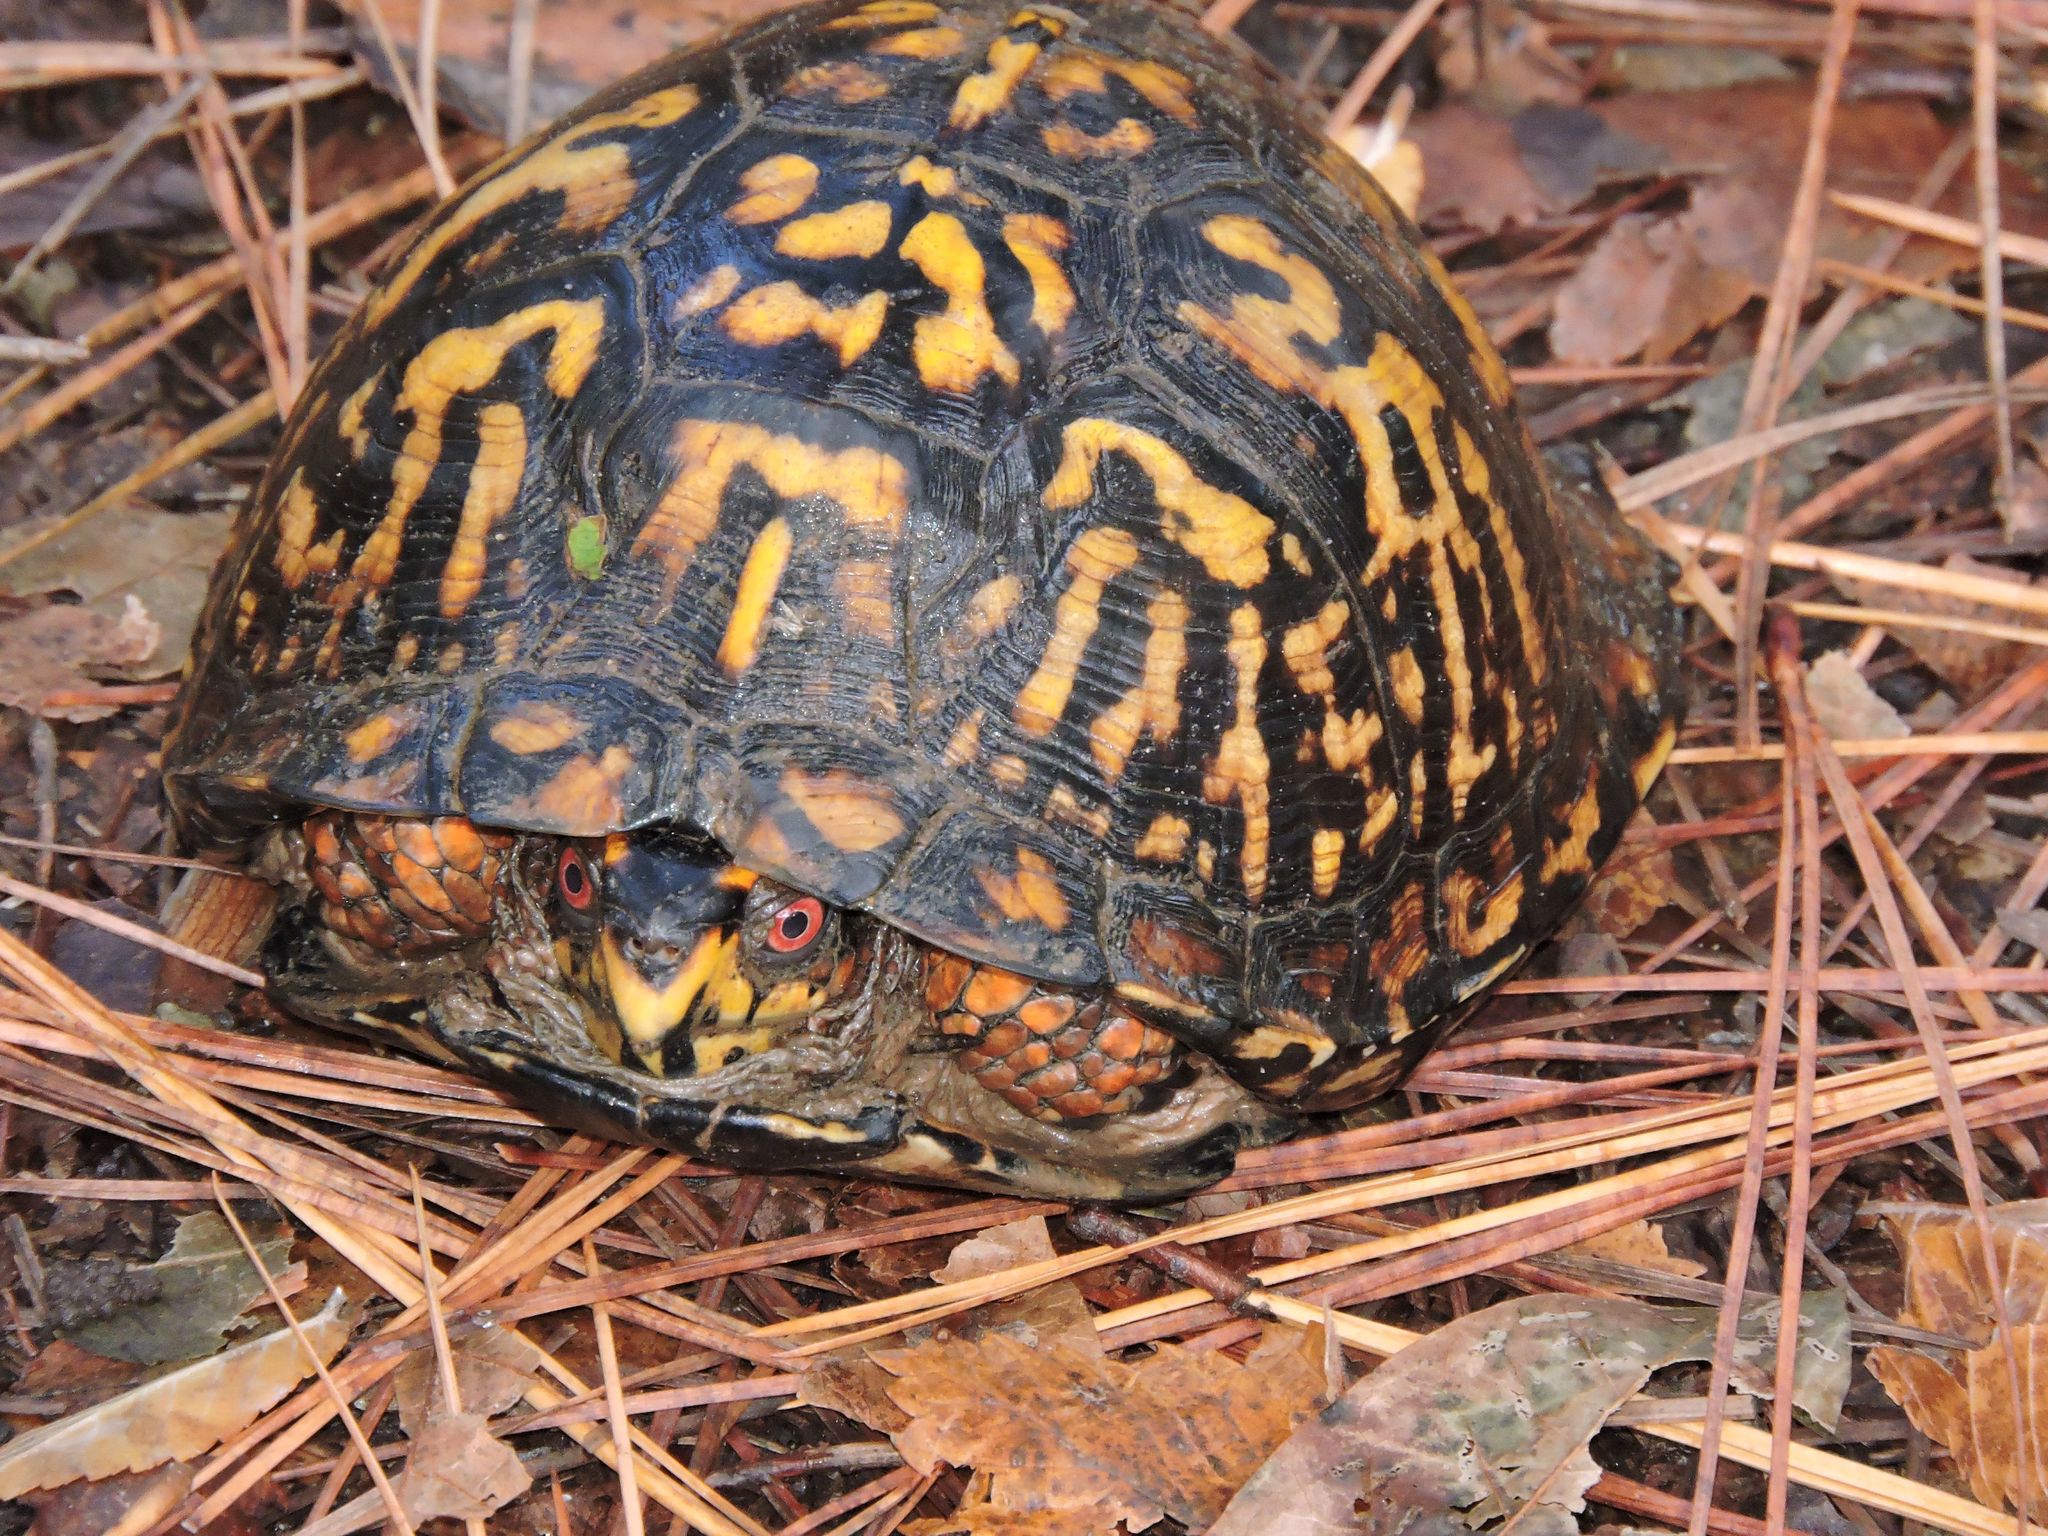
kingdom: Animalia
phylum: Chordata
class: Testudines
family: Emydidae
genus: Terrapene
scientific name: Terrapene carolina
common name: Common box turtle
